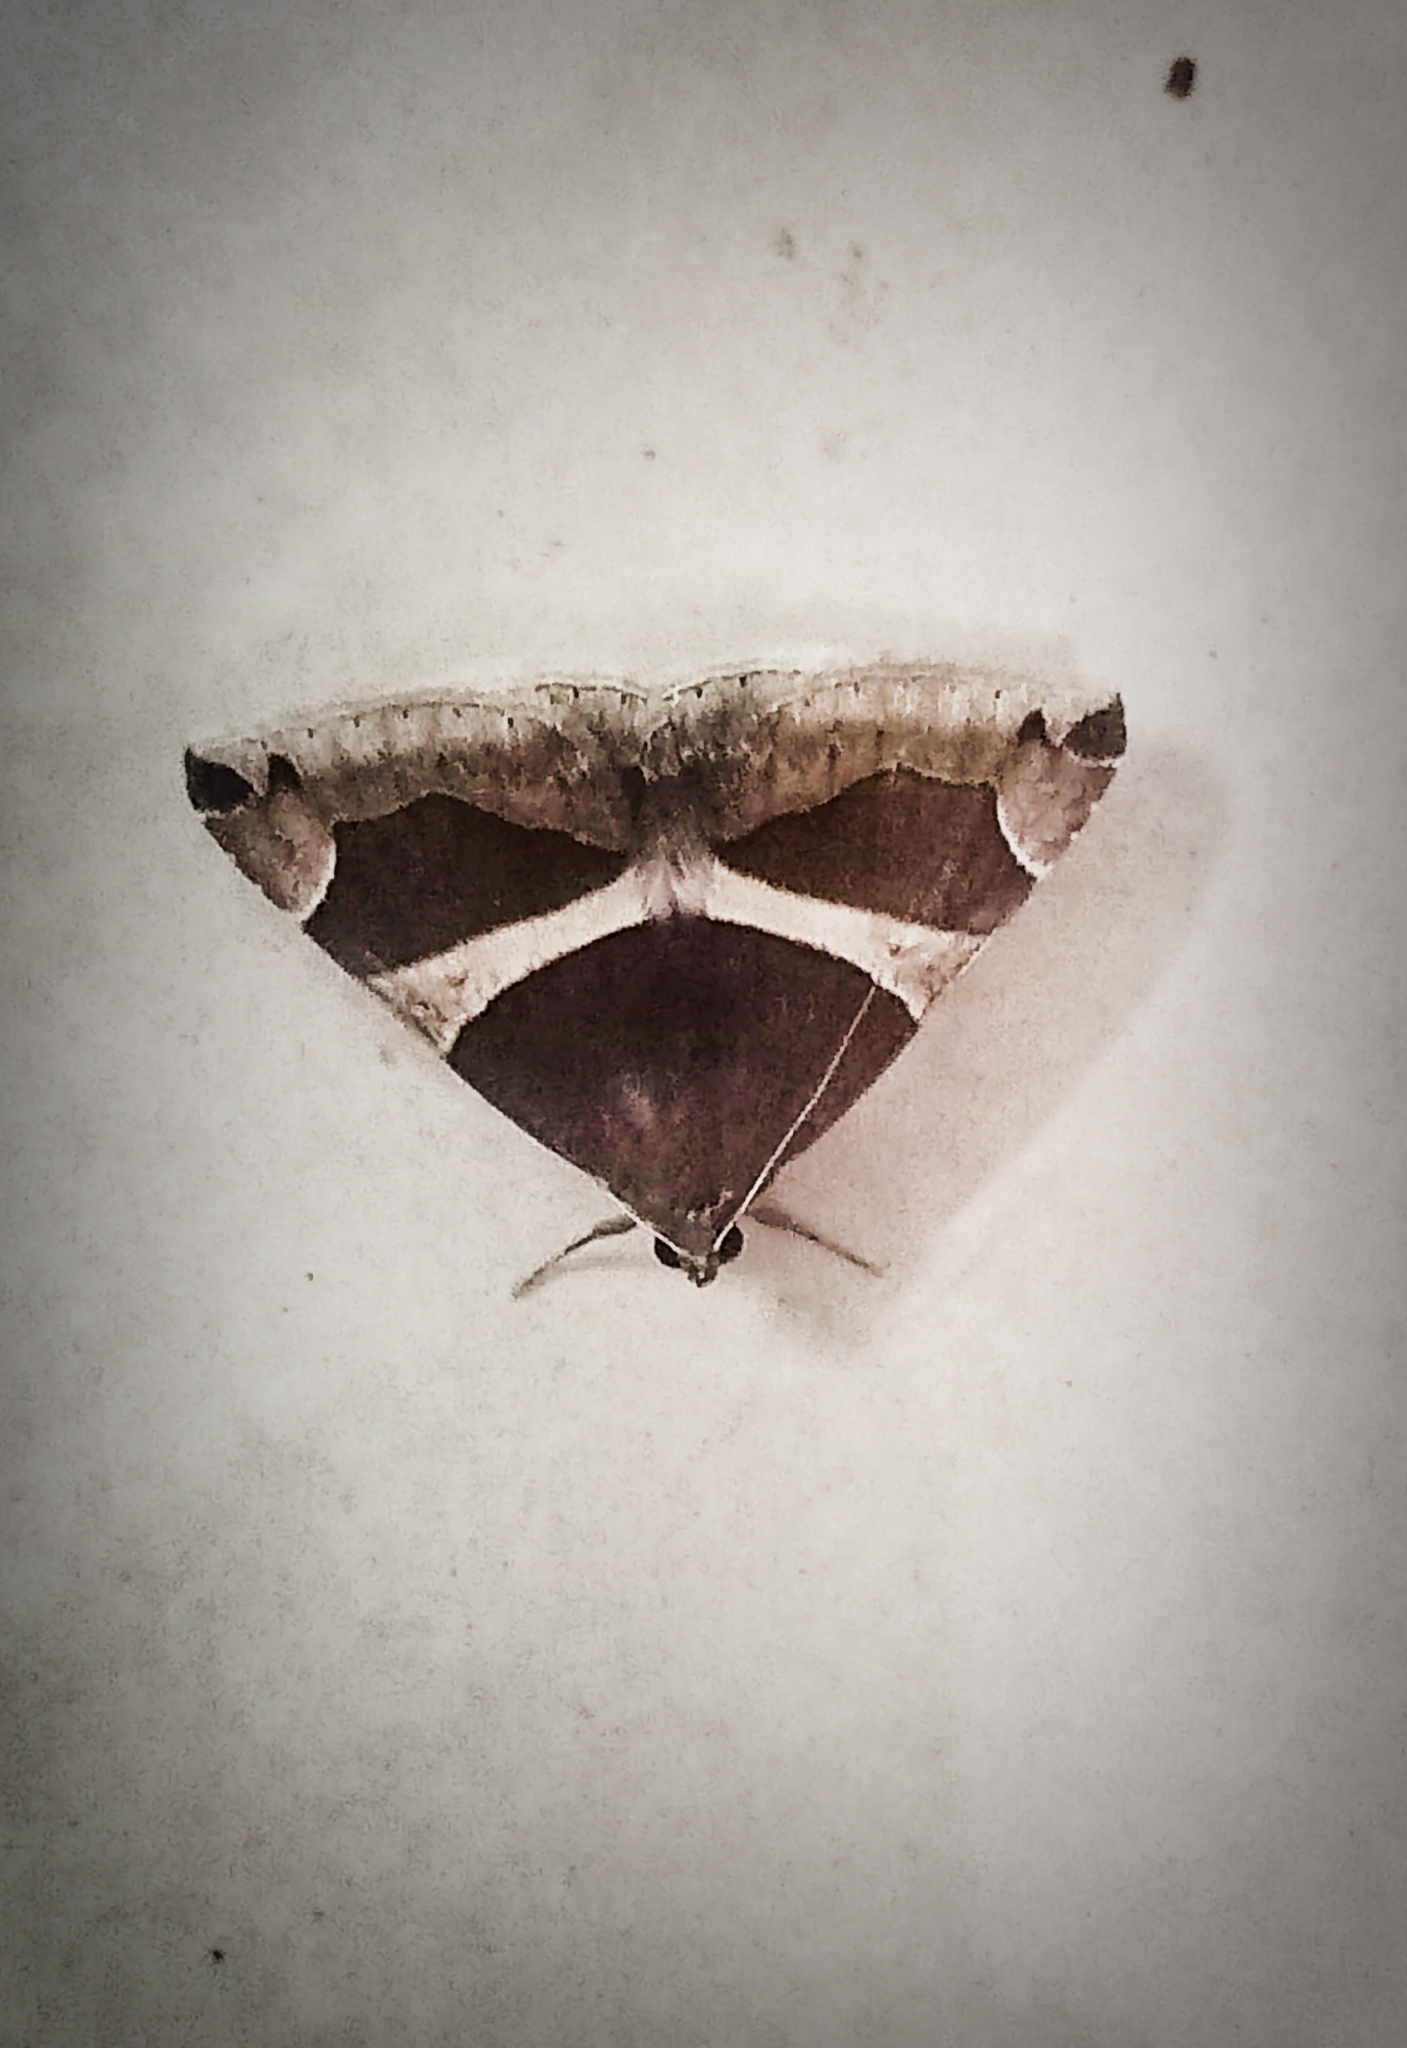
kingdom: Animalia
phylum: Arthropoda
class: Insecta
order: Lepidoptera
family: Erebidae
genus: Dysgonia
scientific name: Dysgonia torrida
